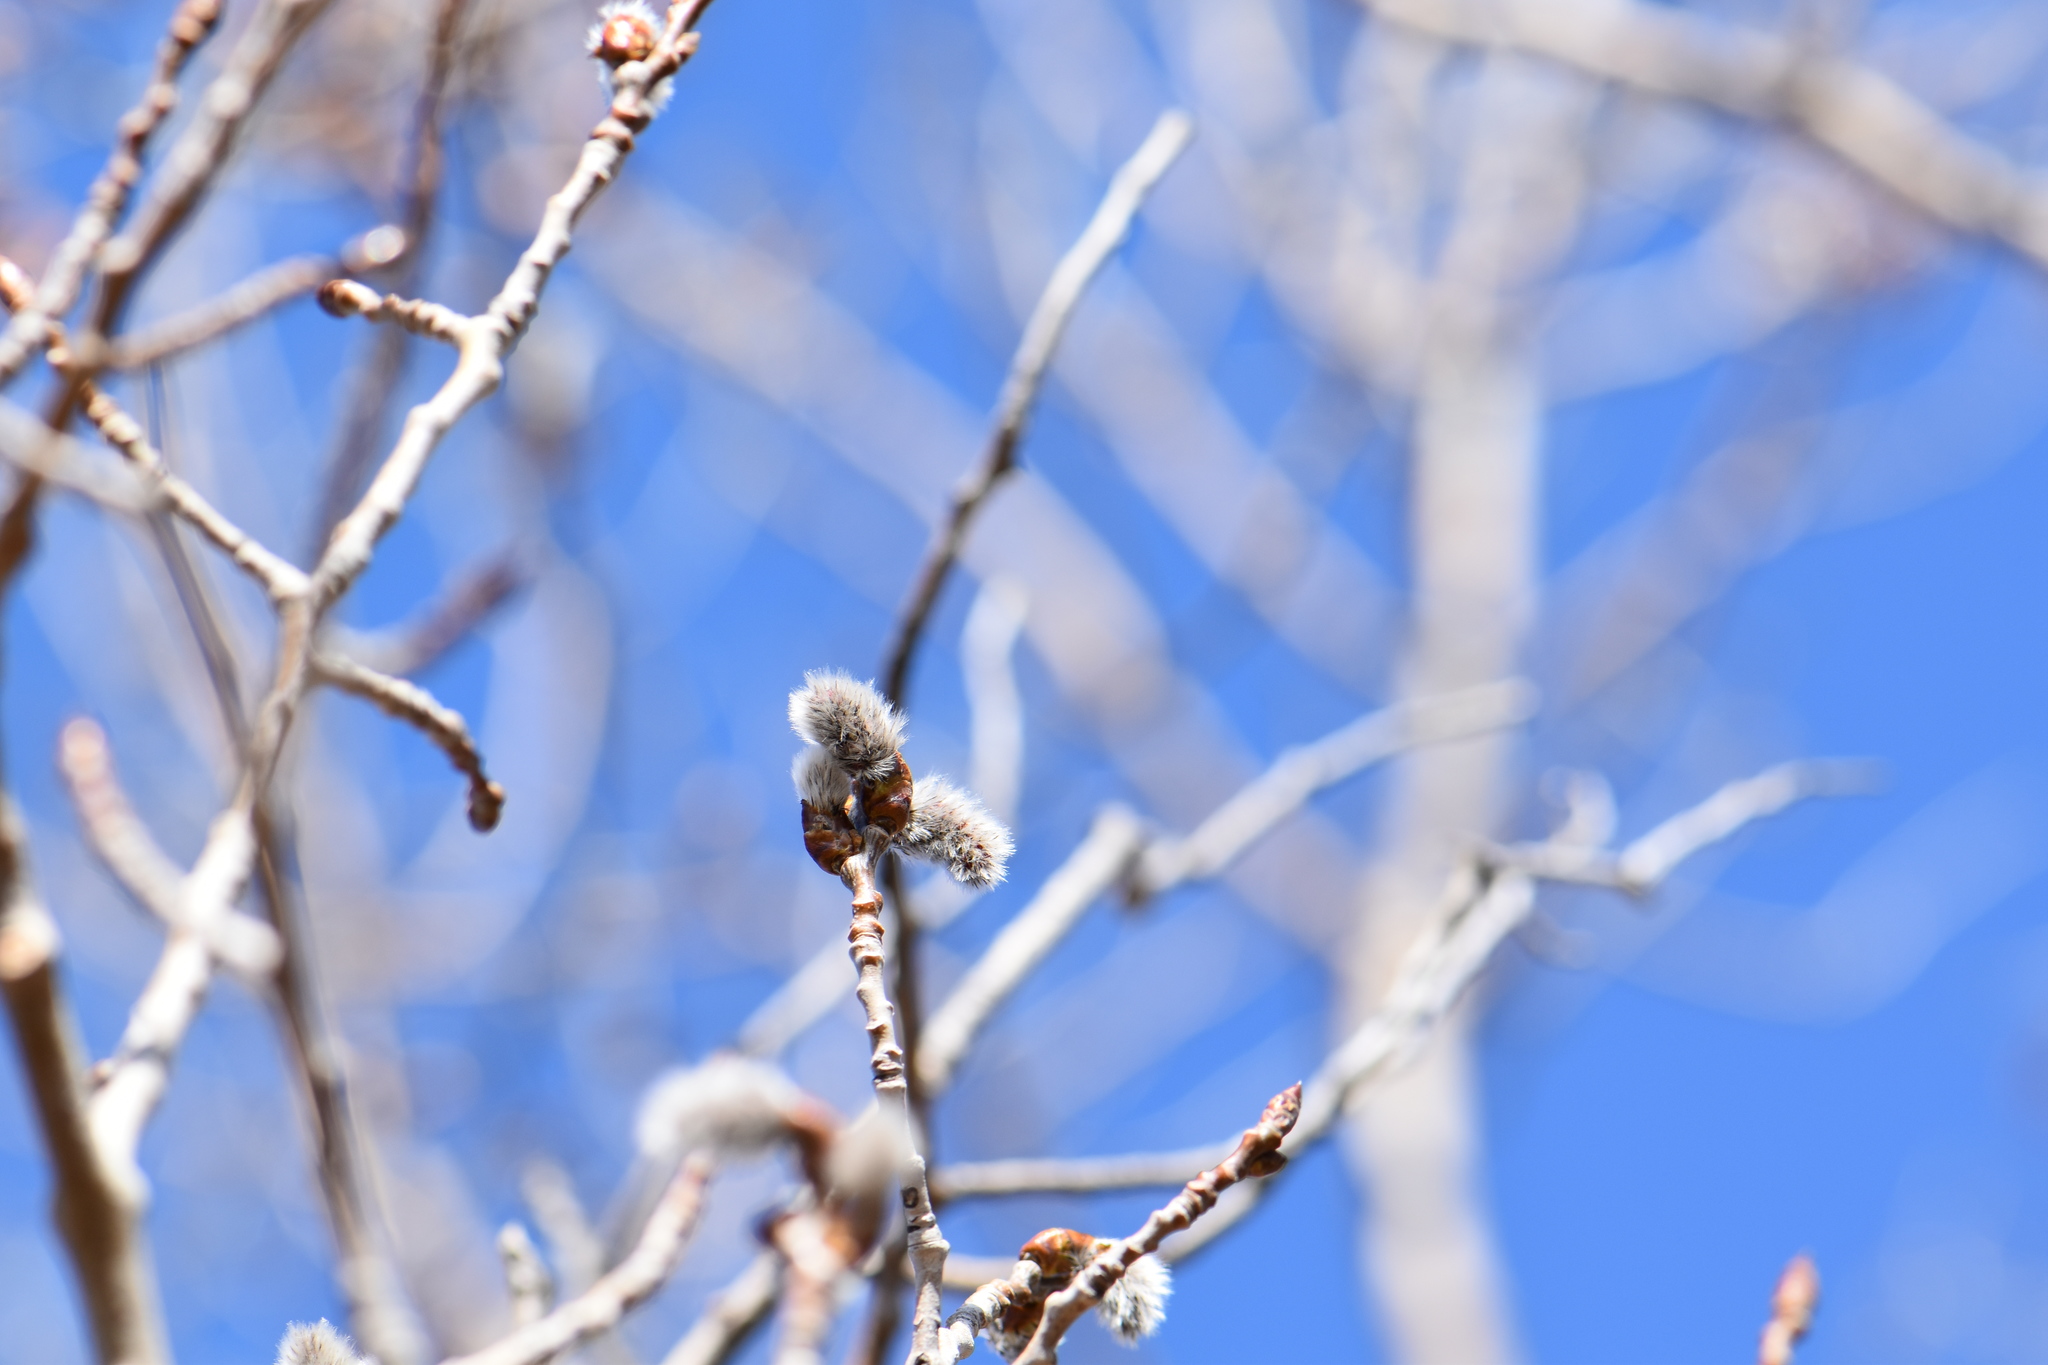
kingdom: Plantae
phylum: Tracheophyta
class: Magnoliopsida
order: Malpighiales
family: Salicaceae
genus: Populus
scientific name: Populus tremuloides
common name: Quaking aspen
